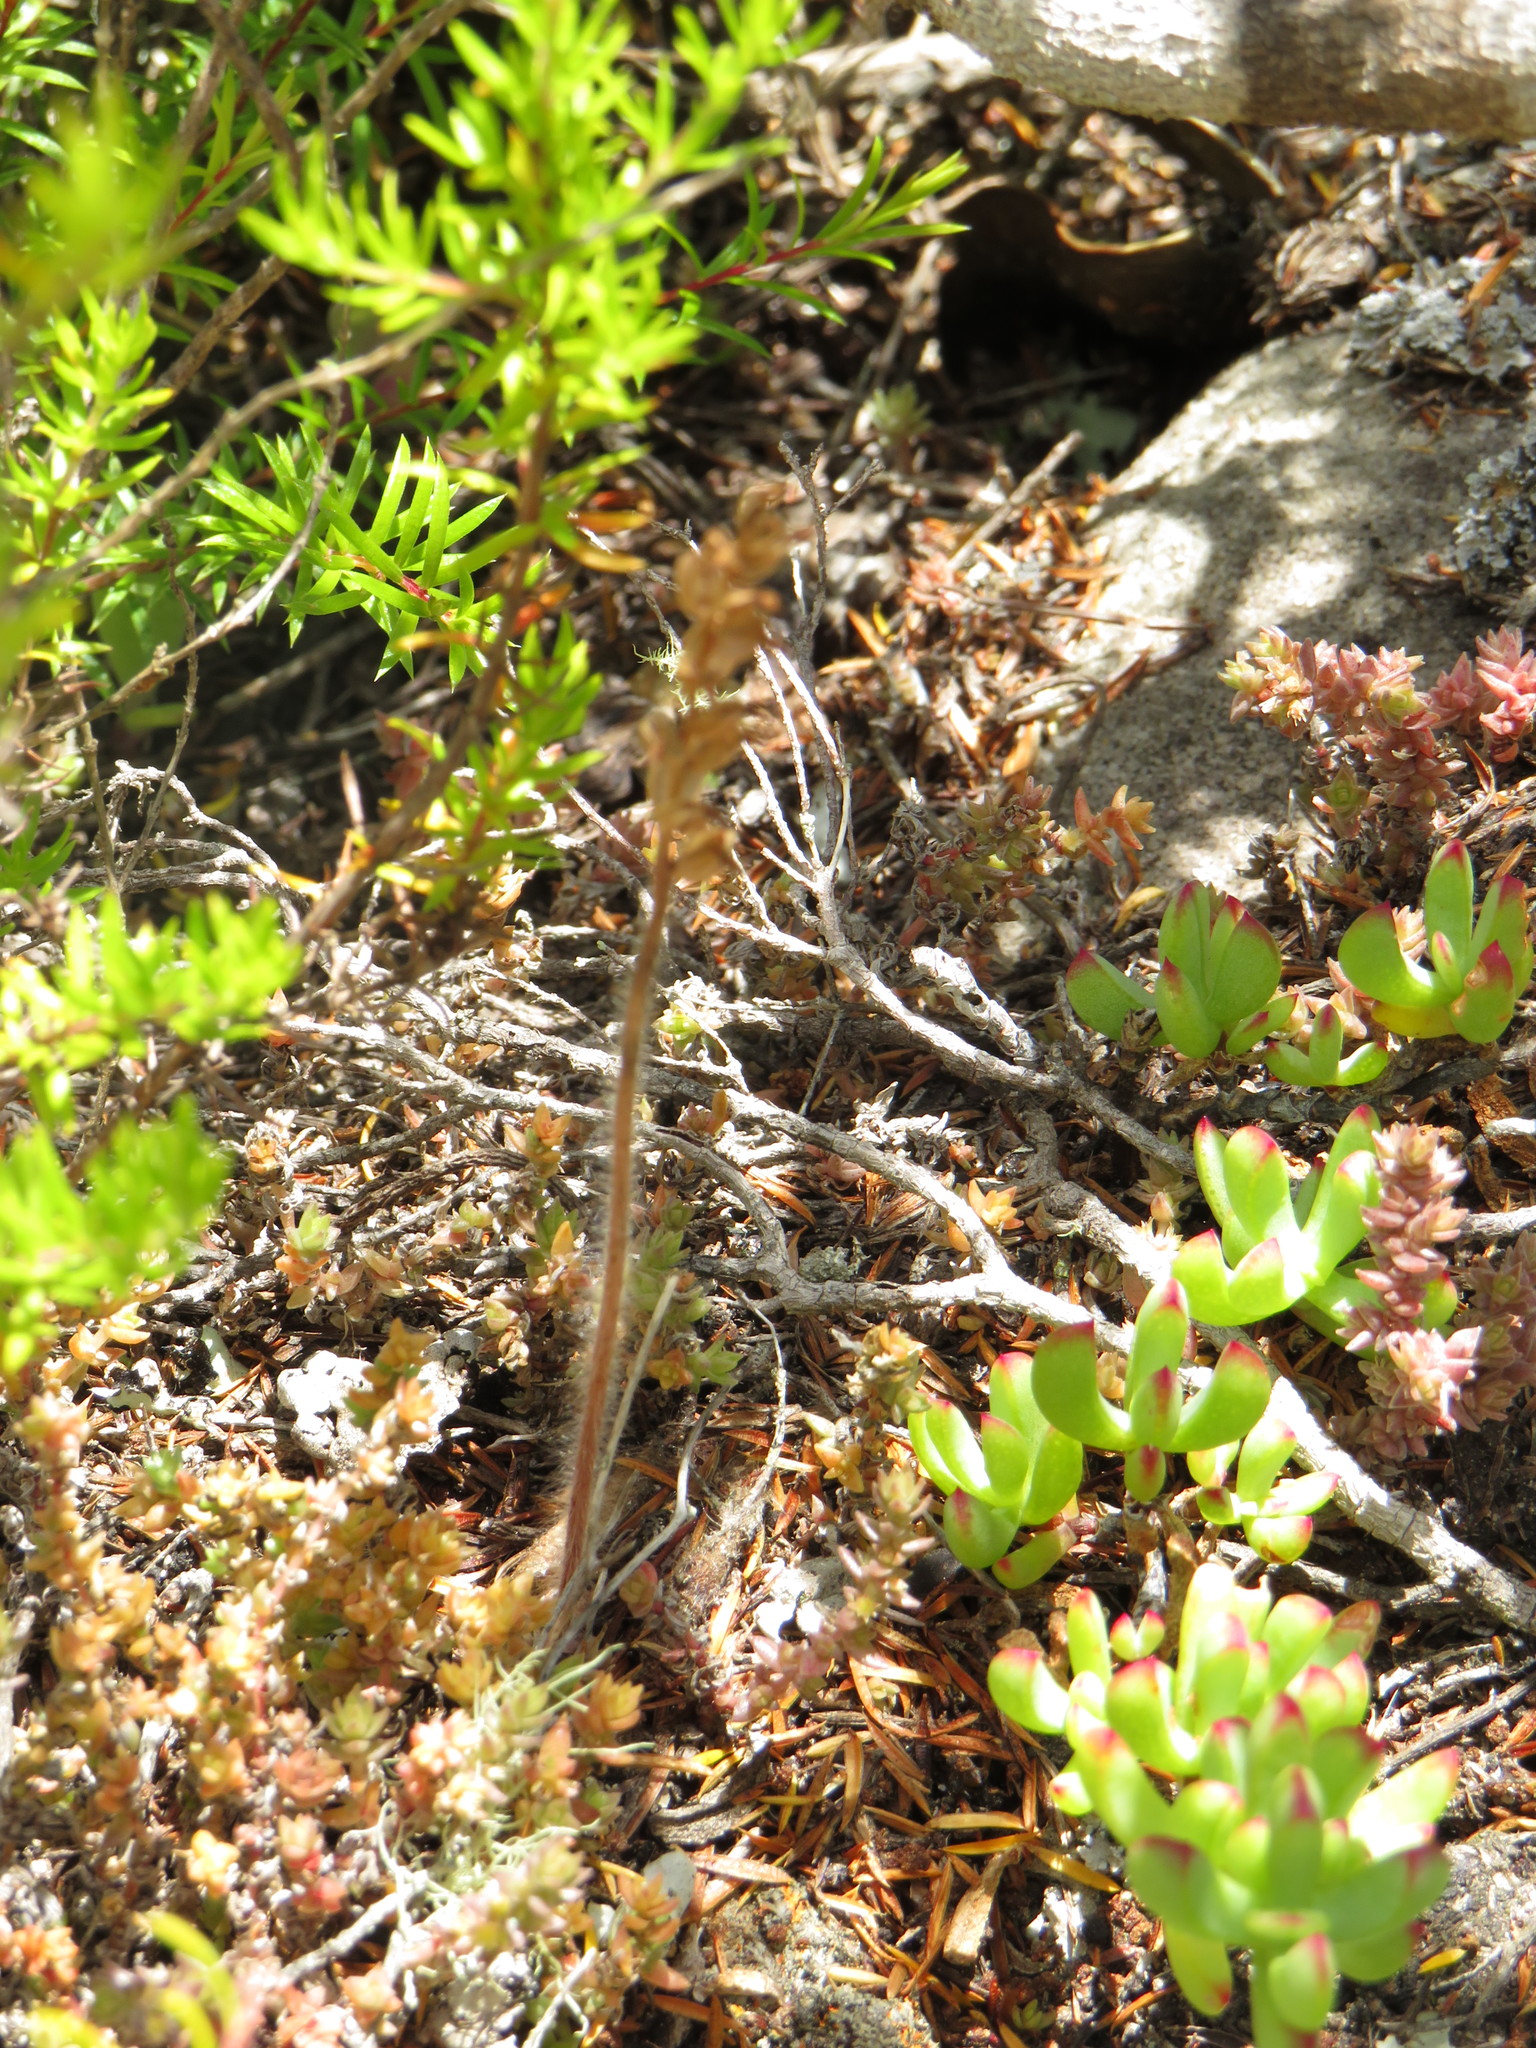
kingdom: Plantae
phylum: Tracheophyta
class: Liliopsida
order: Asparagales
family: Orchidaceae
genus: Holothrix
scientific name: Holothrix villosa
